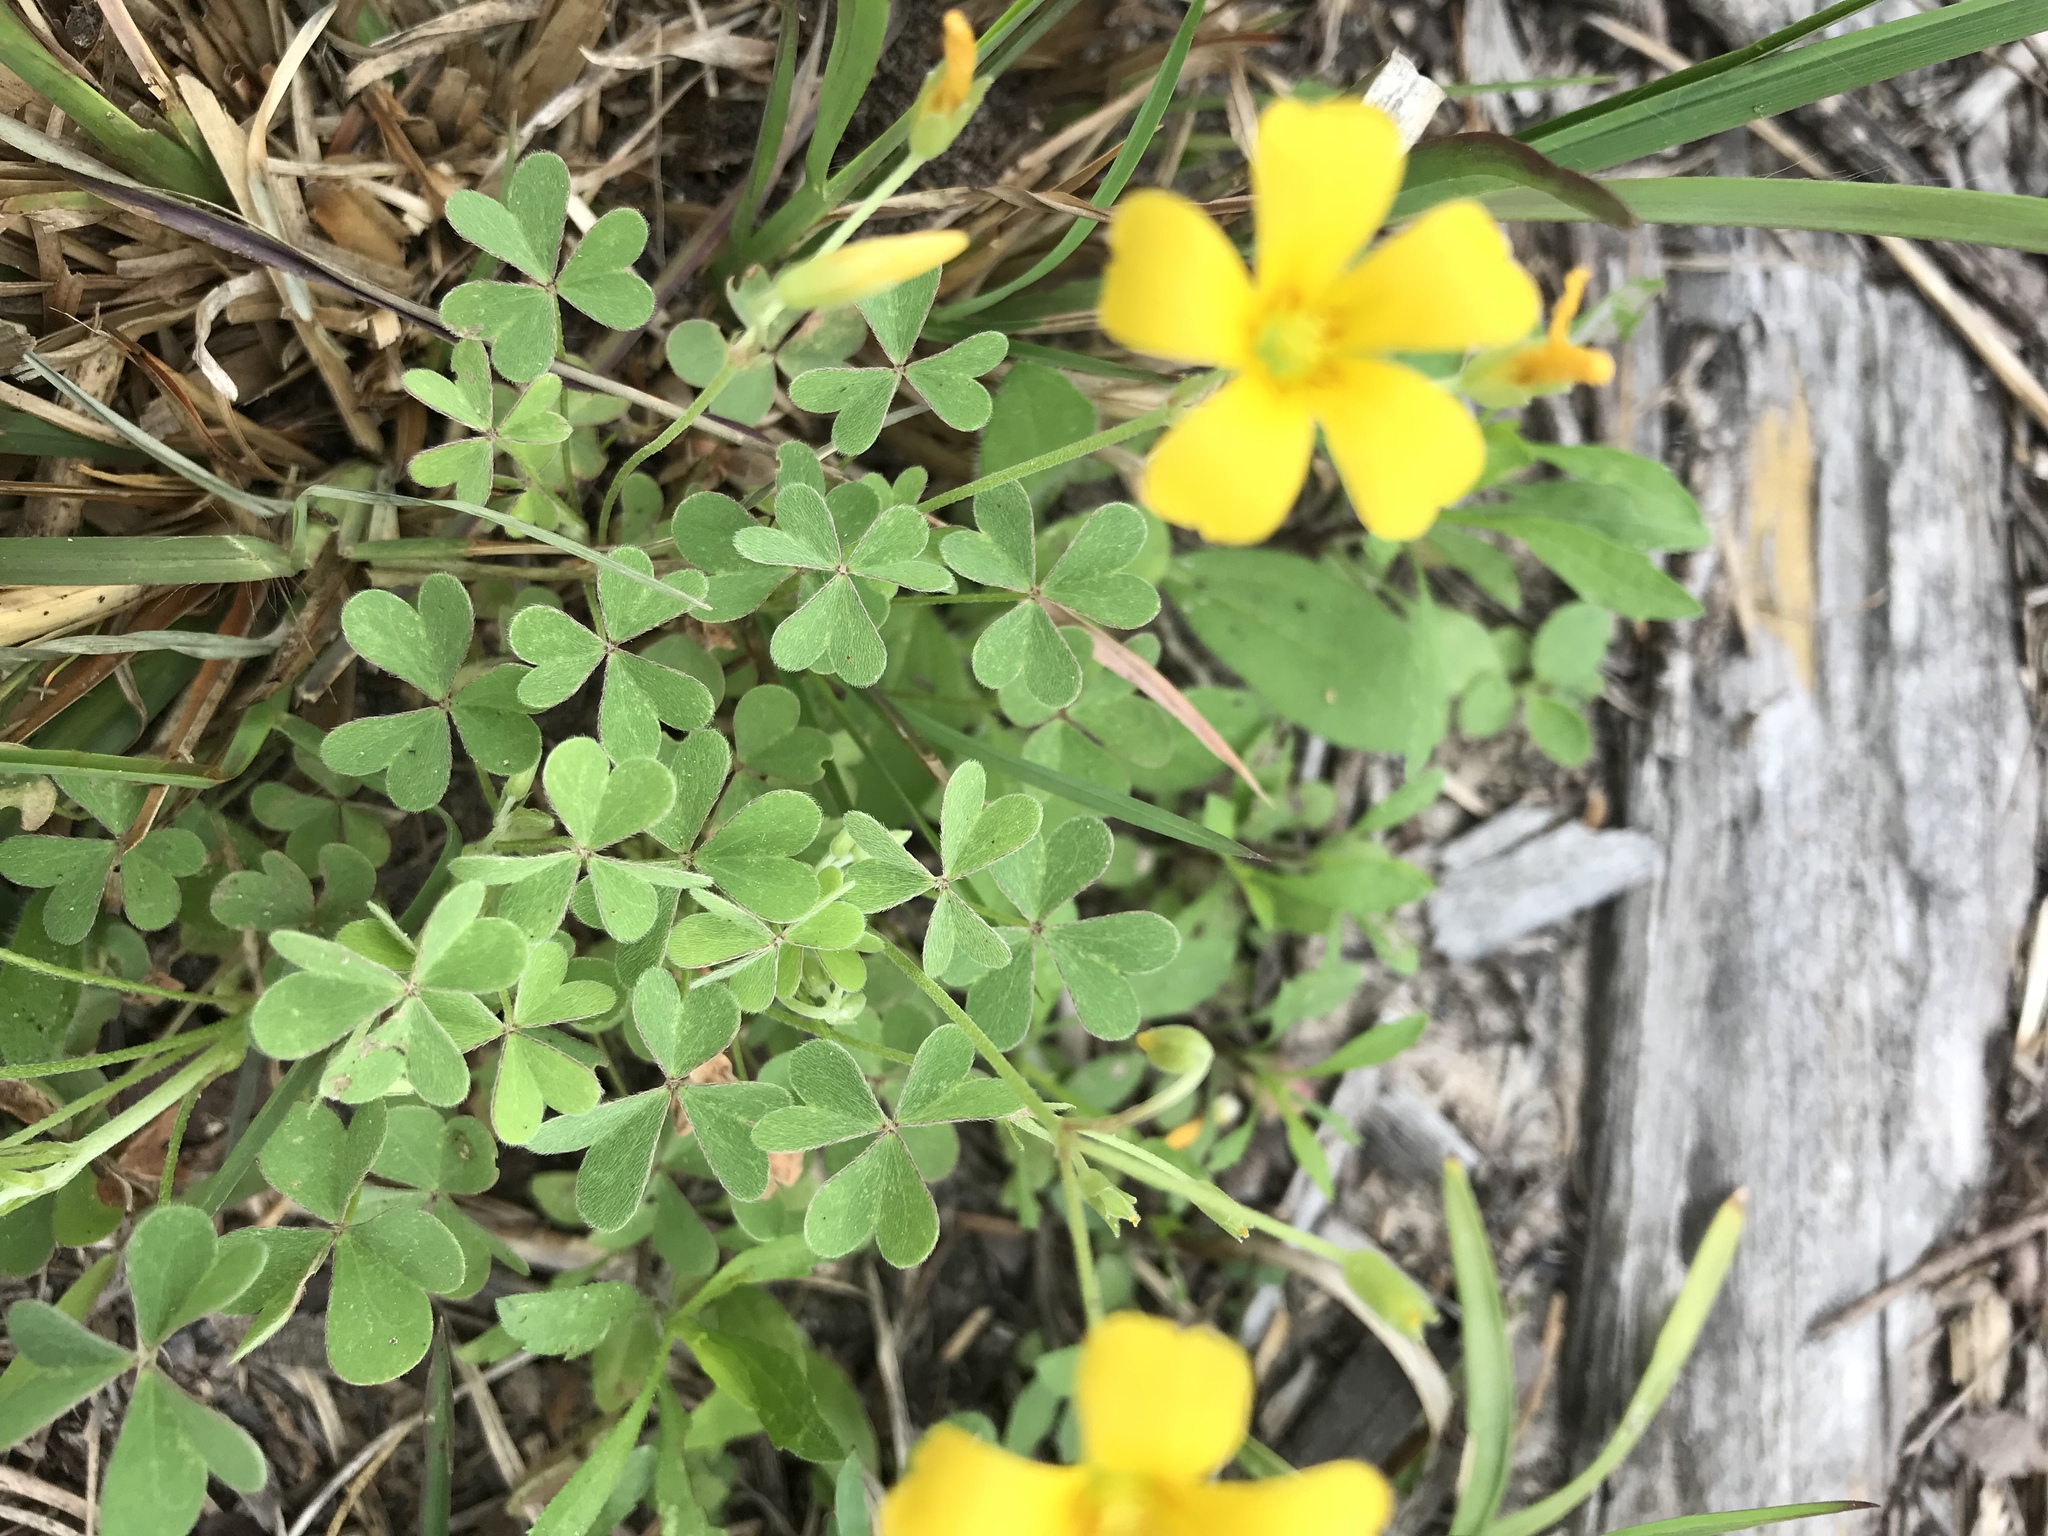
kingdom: Plantae
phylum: Tracheophyta
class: Magnoliopsida
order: Oxalidales
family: Oxalidaceae
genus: Oxalis
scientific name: Oxalis dillenii
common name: Sussex yellow-sorrel
